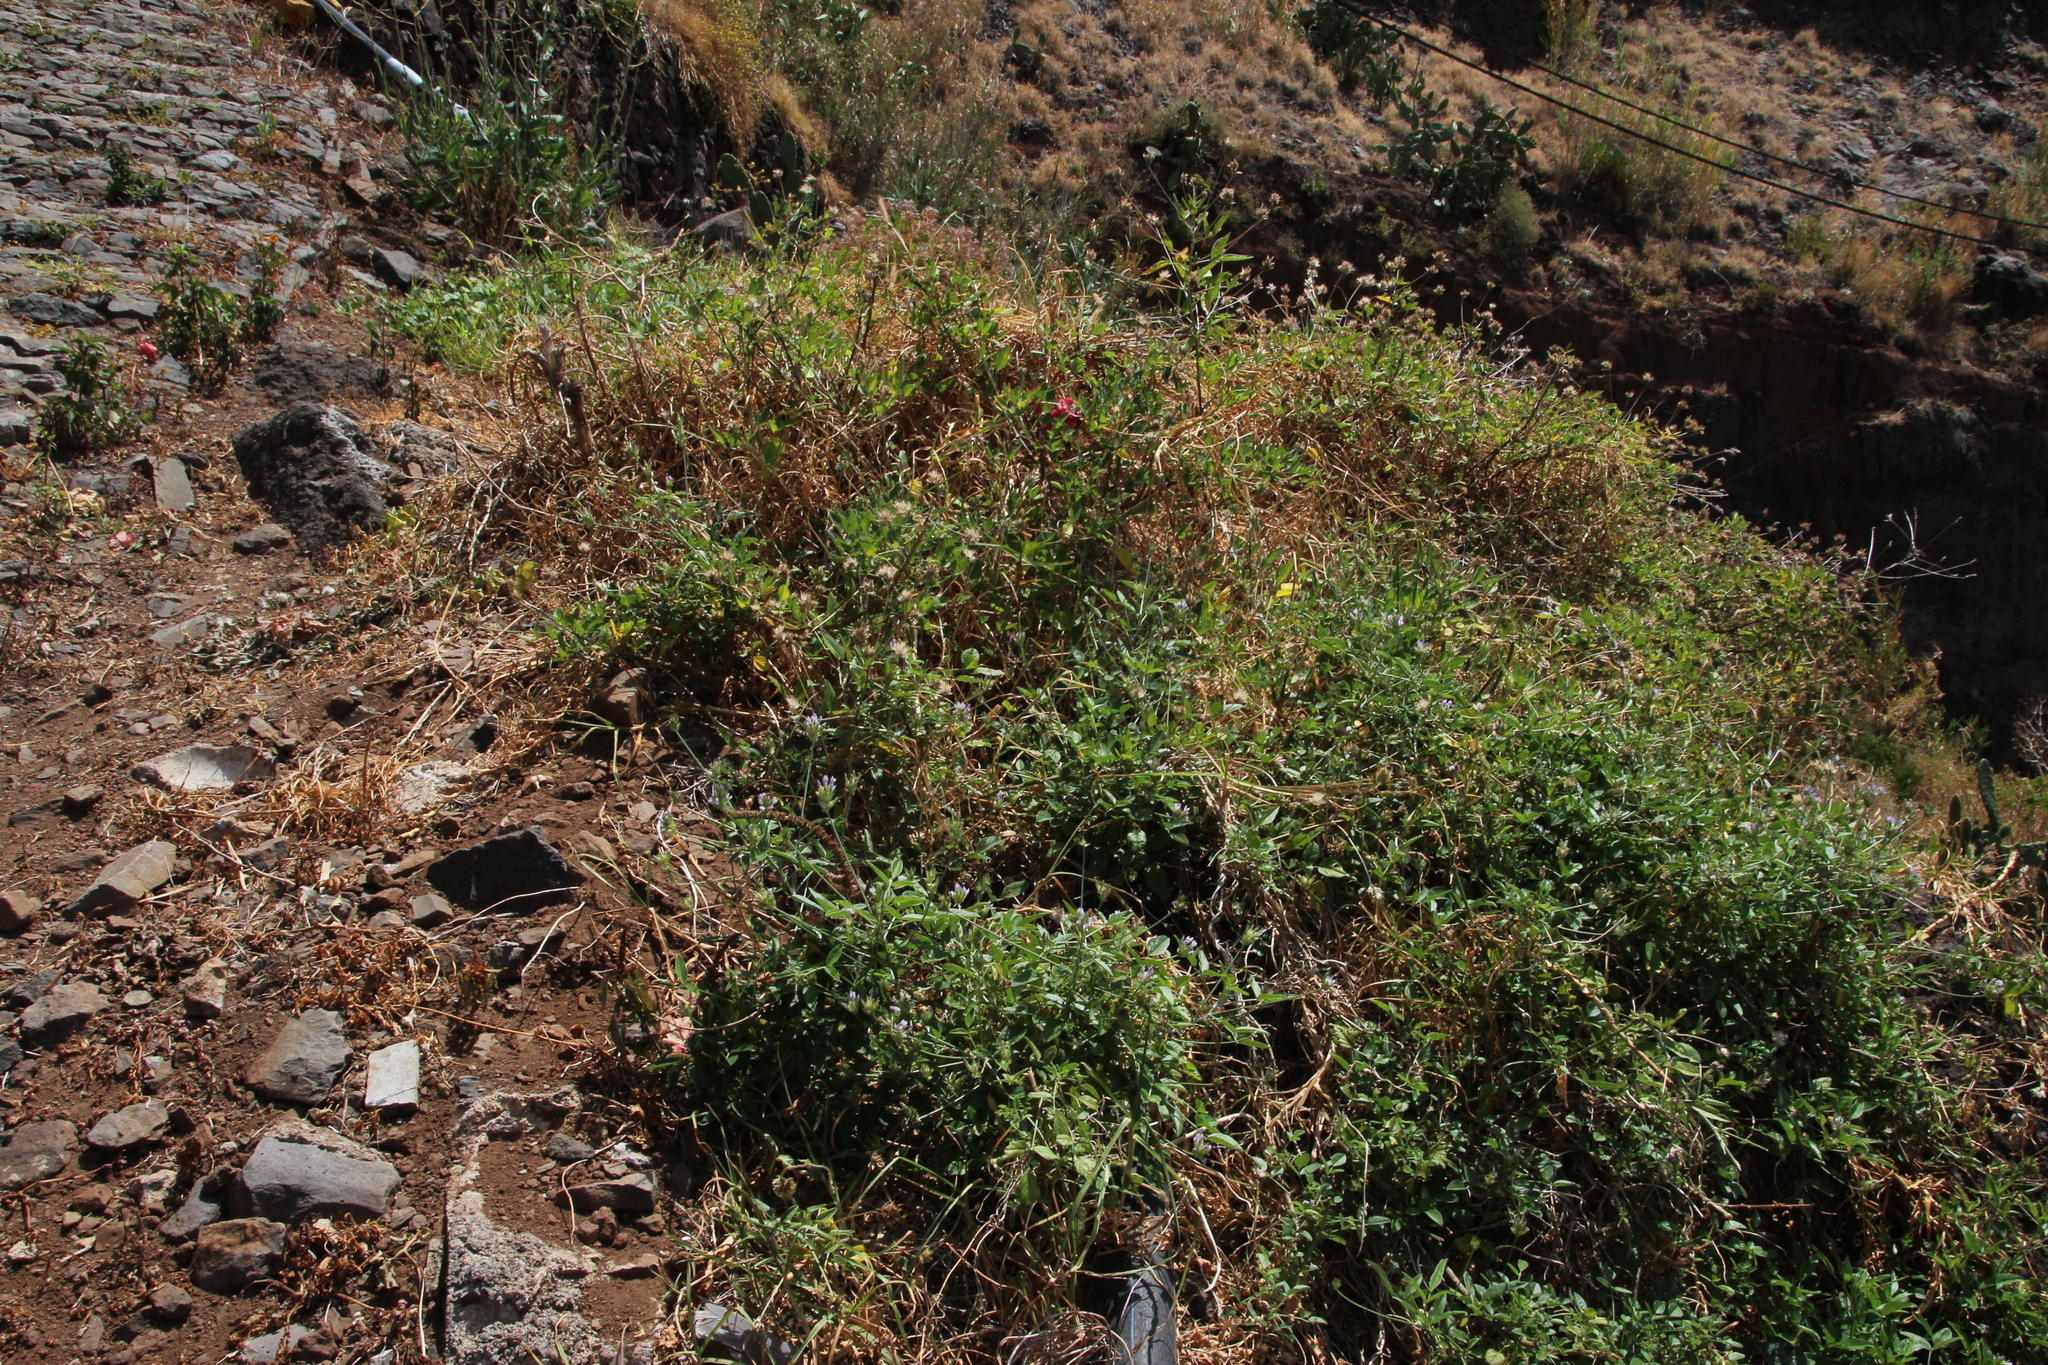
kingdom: Plantae
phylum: Tracheophyta
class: Magnoliopsida
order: Fabales
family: Fabaceae
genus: Bituminaria
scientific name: Bituminaria bituminosa
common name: Arabian pea
